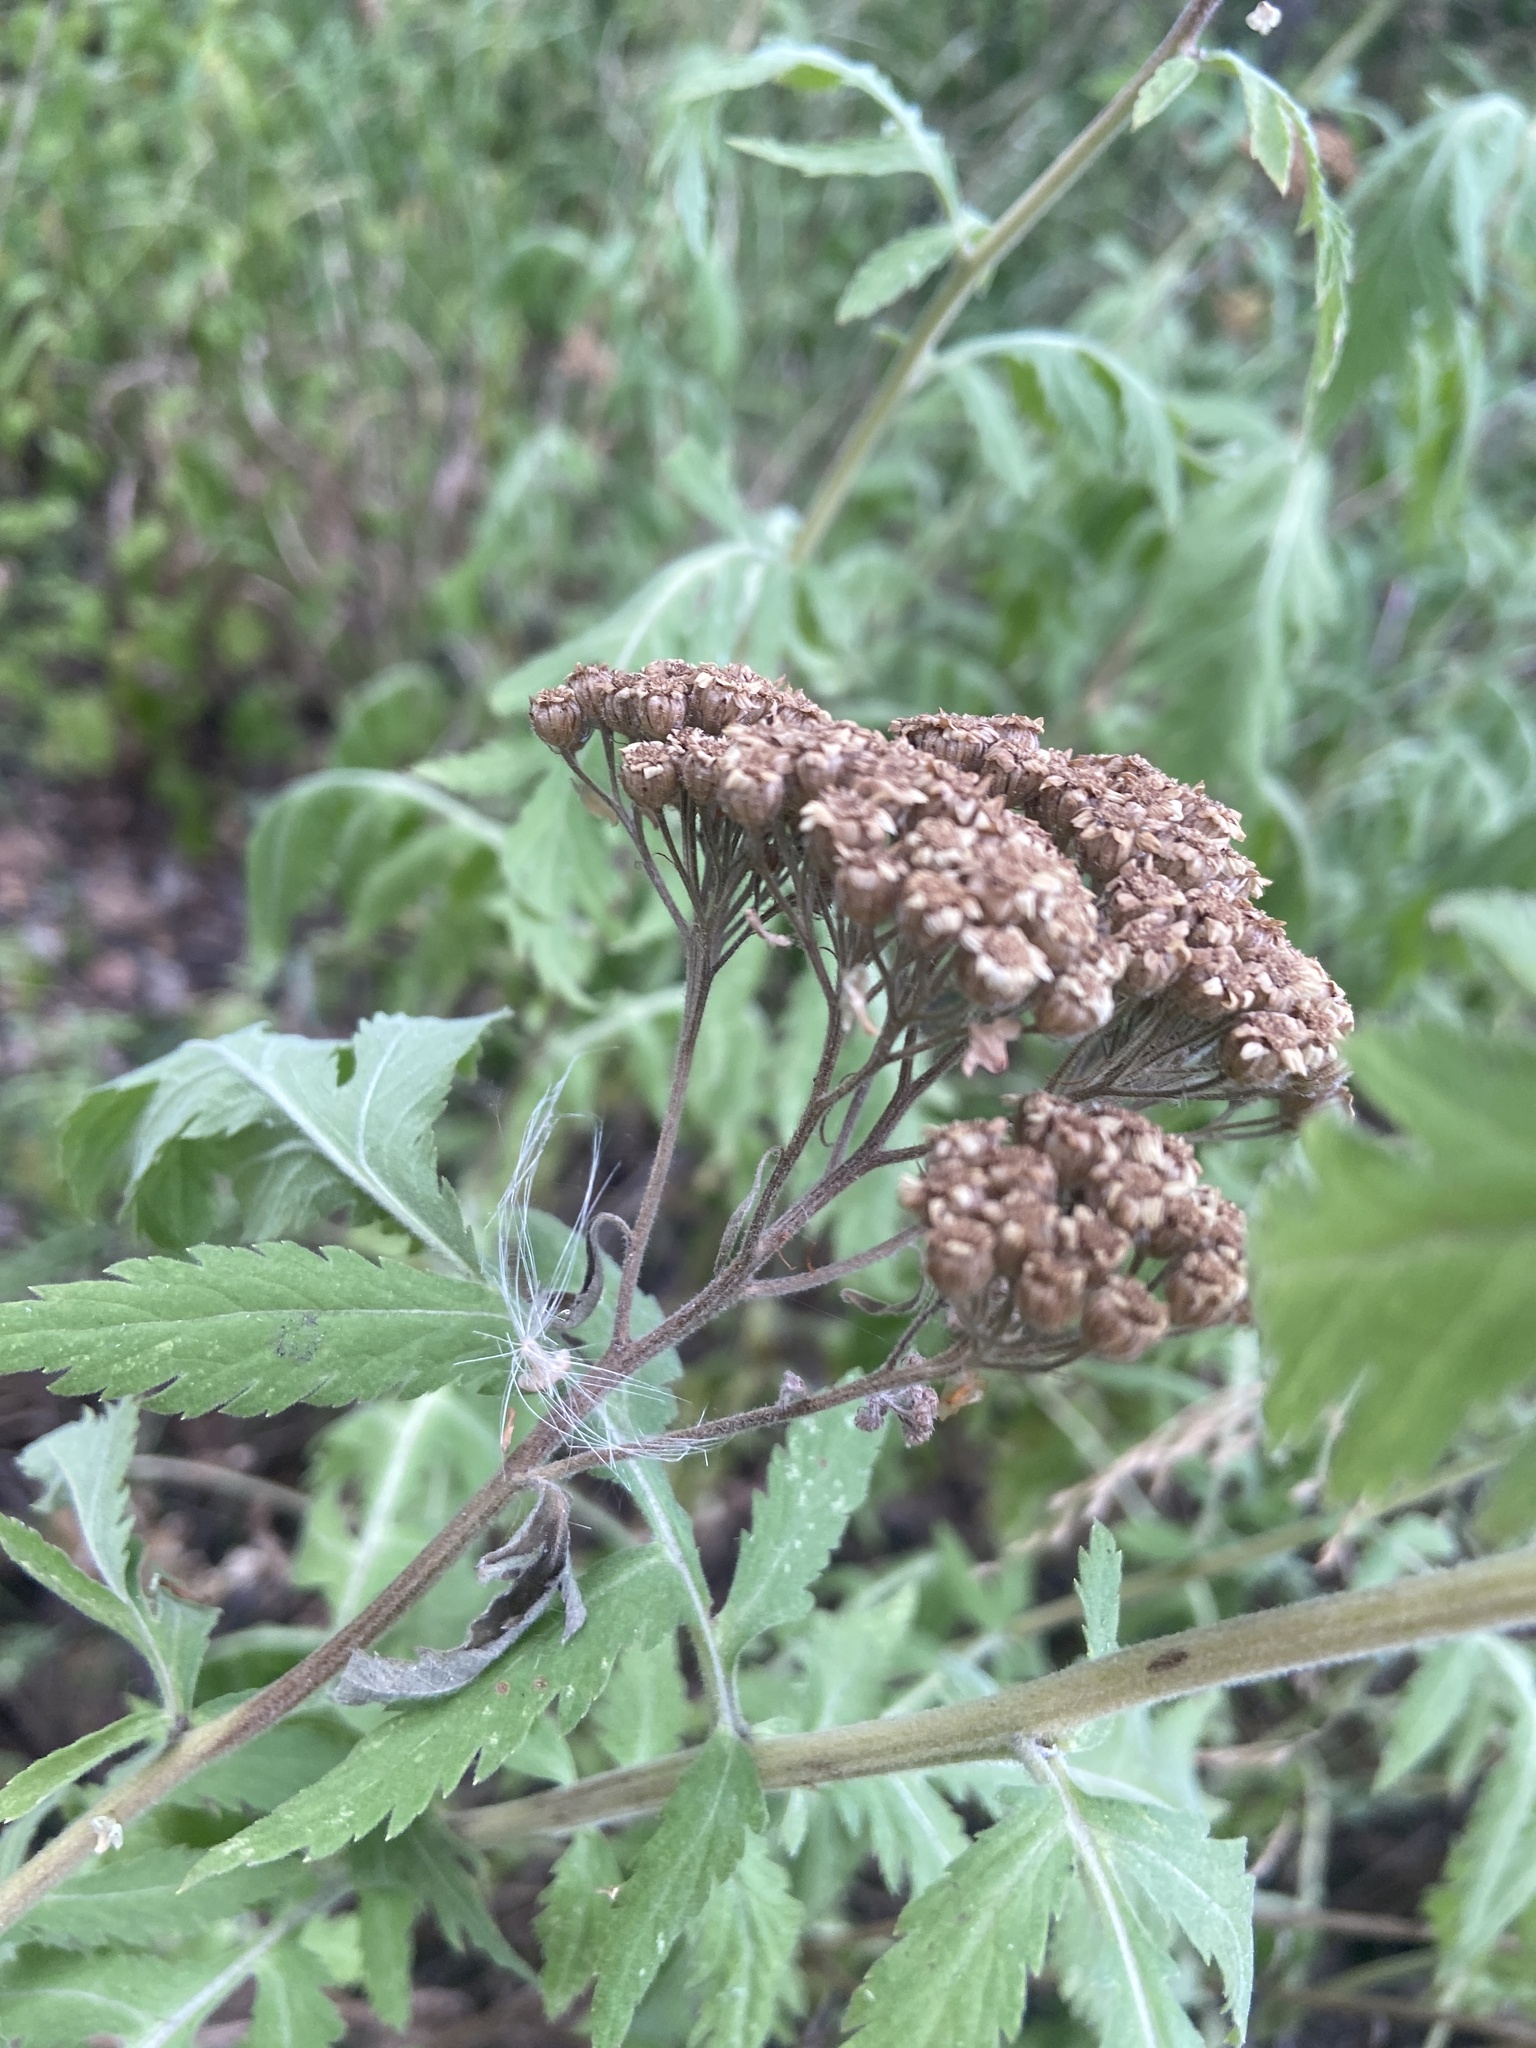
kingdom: Plantae
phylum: Tracheophyta
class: Magnoliopsida
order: Asterales
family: Asteraceae
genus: Tanacetum
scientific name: Tanacetum macrophyllum
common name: Rayed tansy
